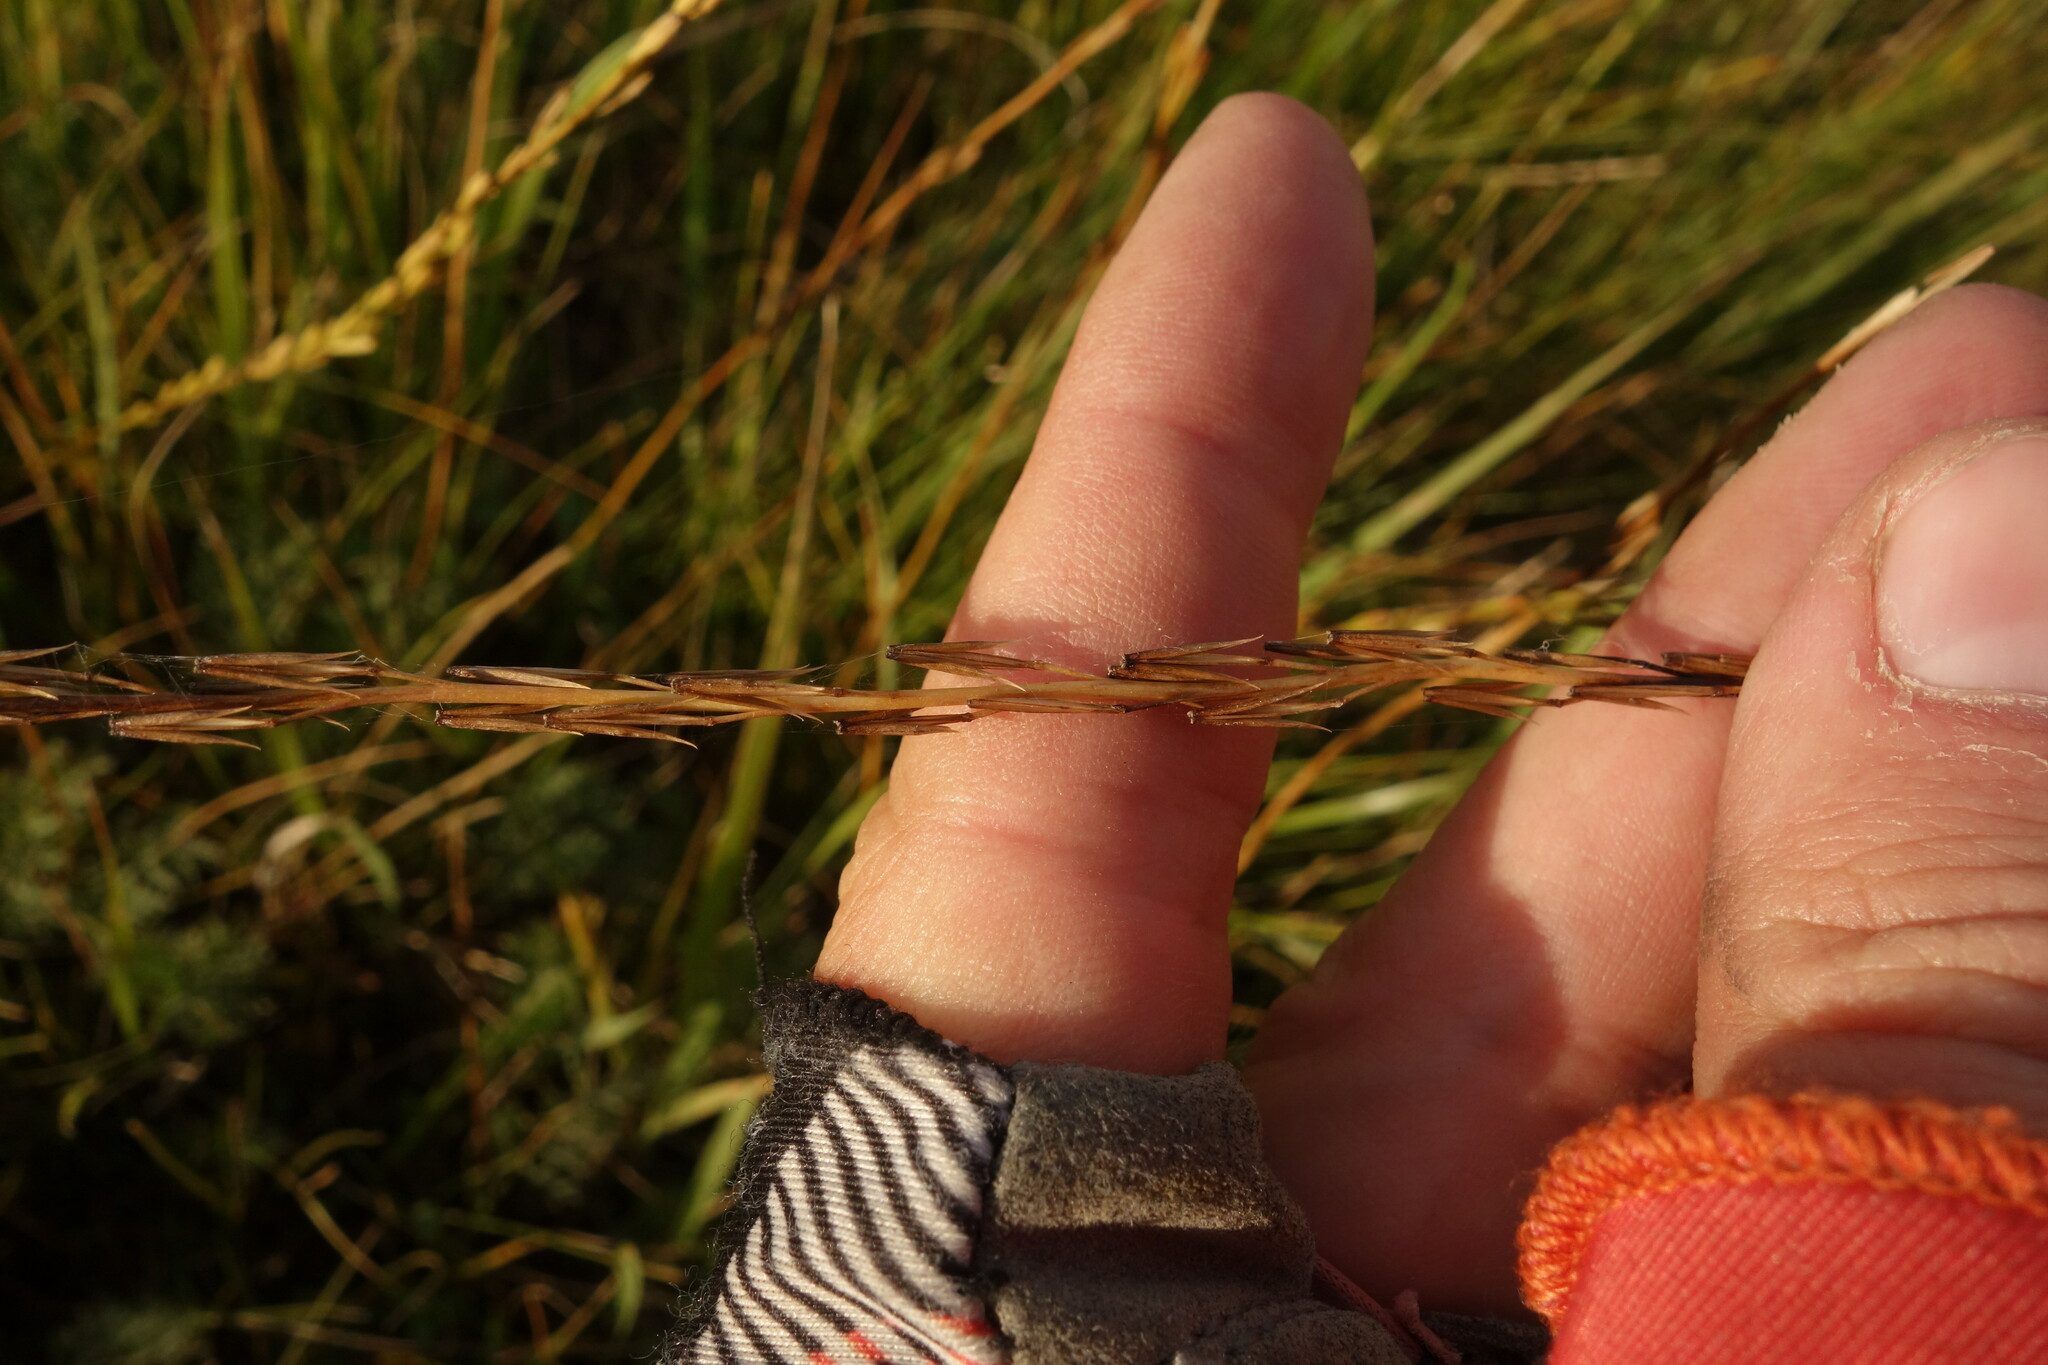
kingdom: Plantae
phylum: Tracheophyta
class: Liliopsida
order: Alismatales
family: Juncaginaceae
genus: Triglochin
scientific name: Triglochin palustris
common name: Marsh arrowgrass
